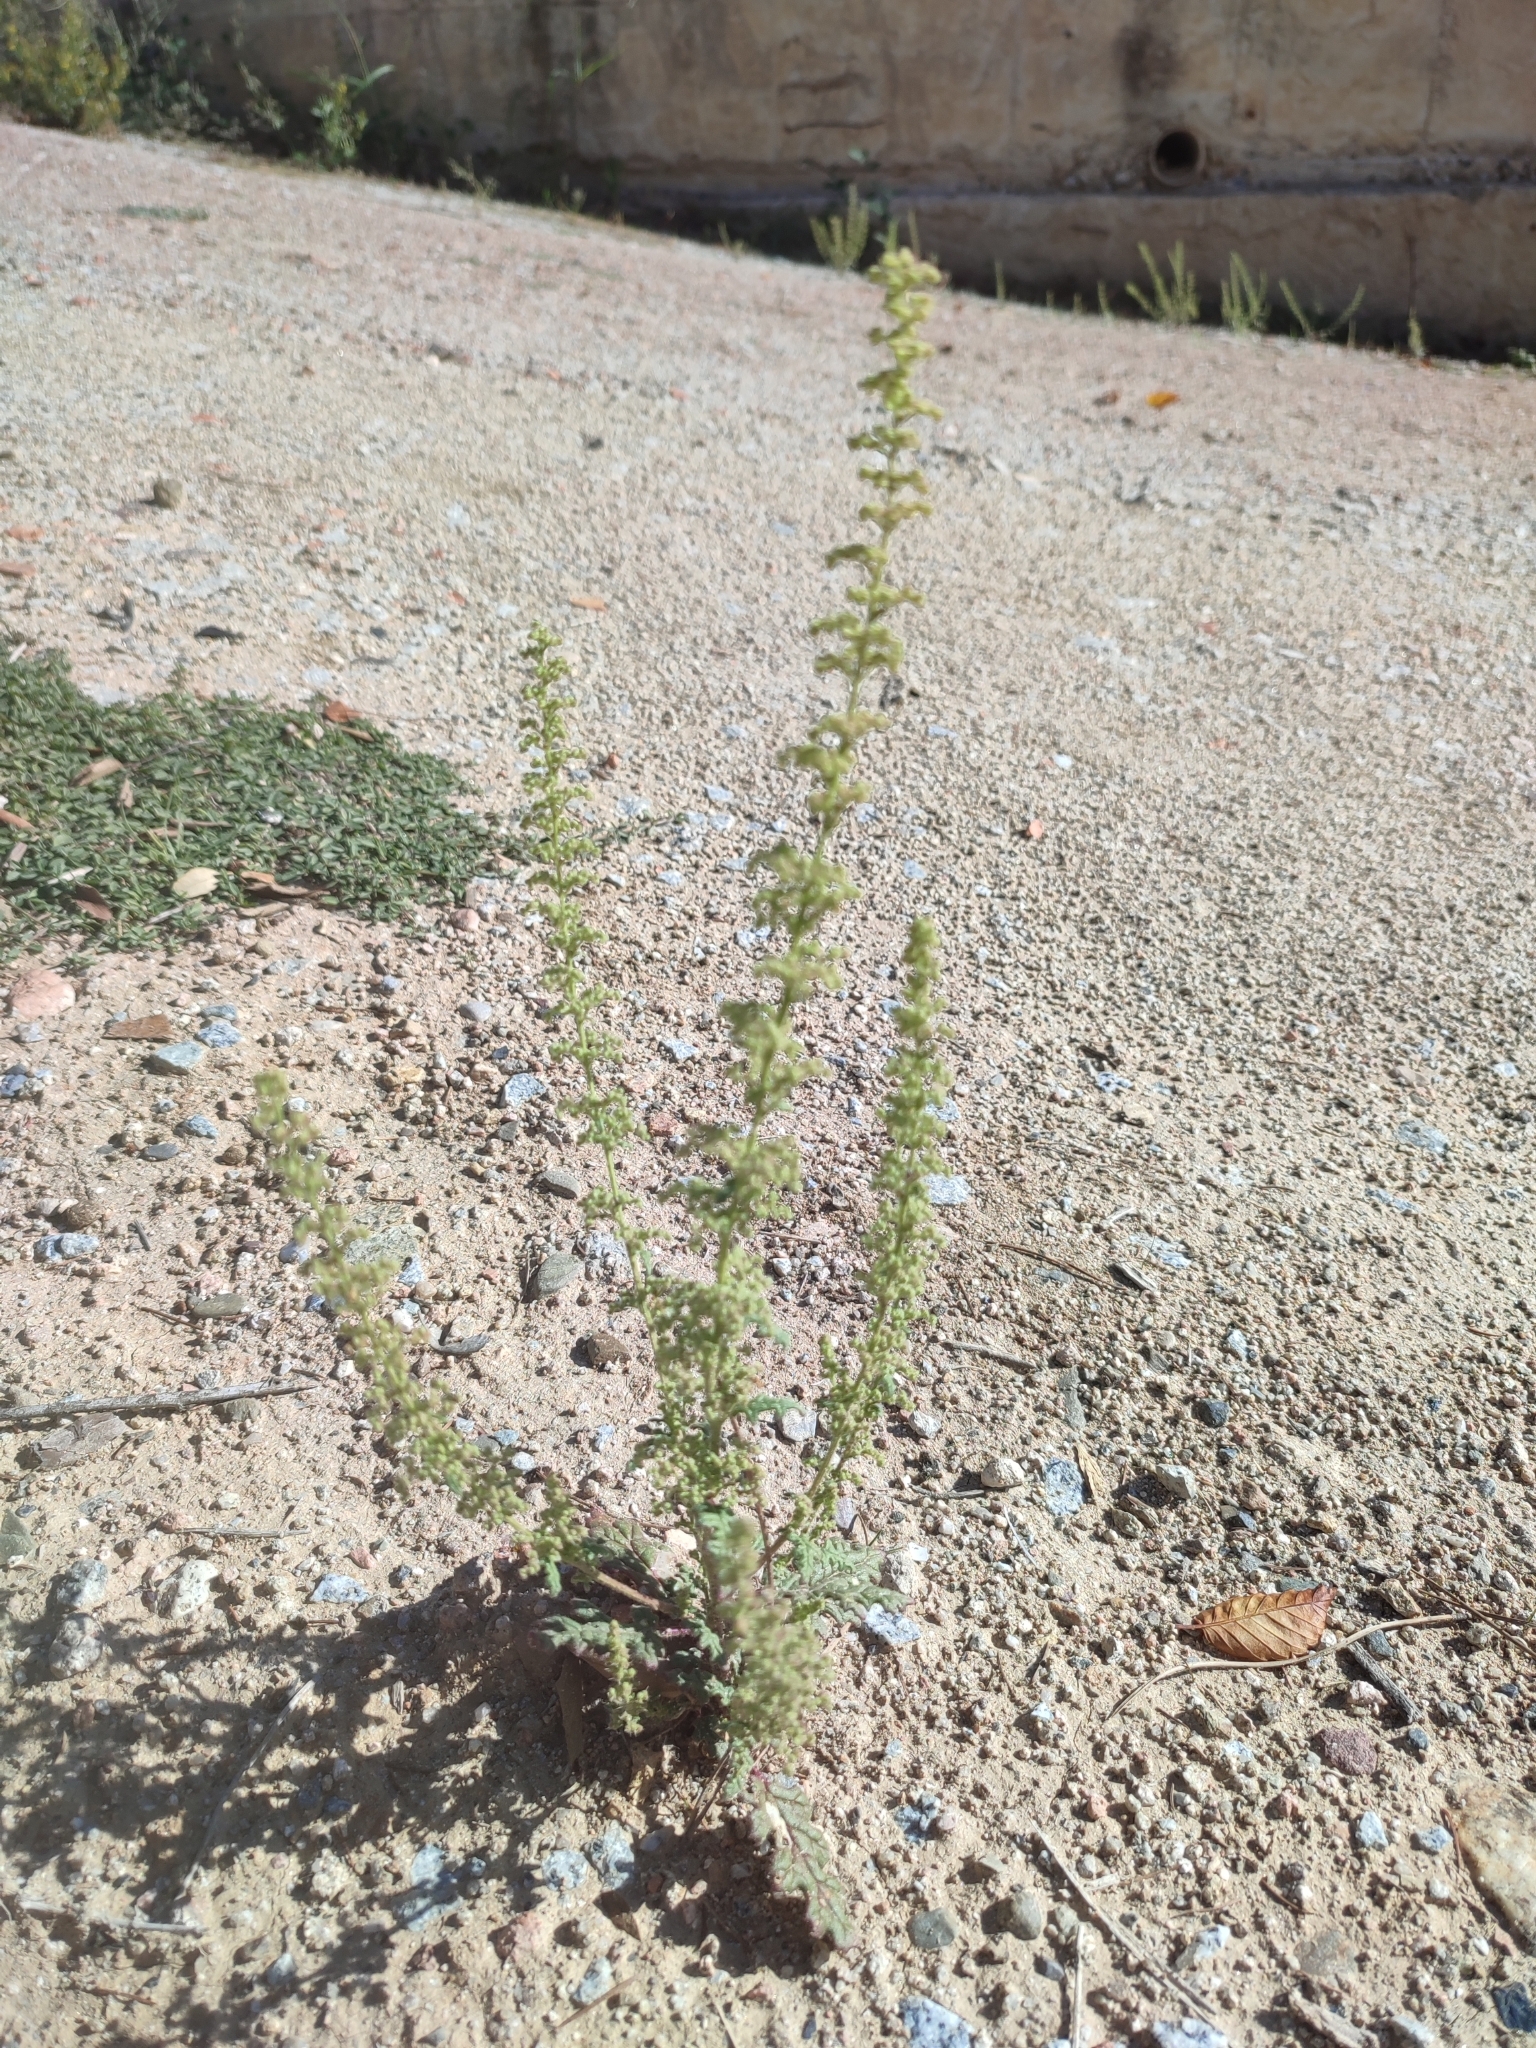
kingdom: Plantae
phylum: Tracheophyta
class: Magnoliopsida
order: Caryophyllales
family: Amaranthaceae
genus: Dysphania
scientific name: Dysphania botrys
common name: Feather-geranium
